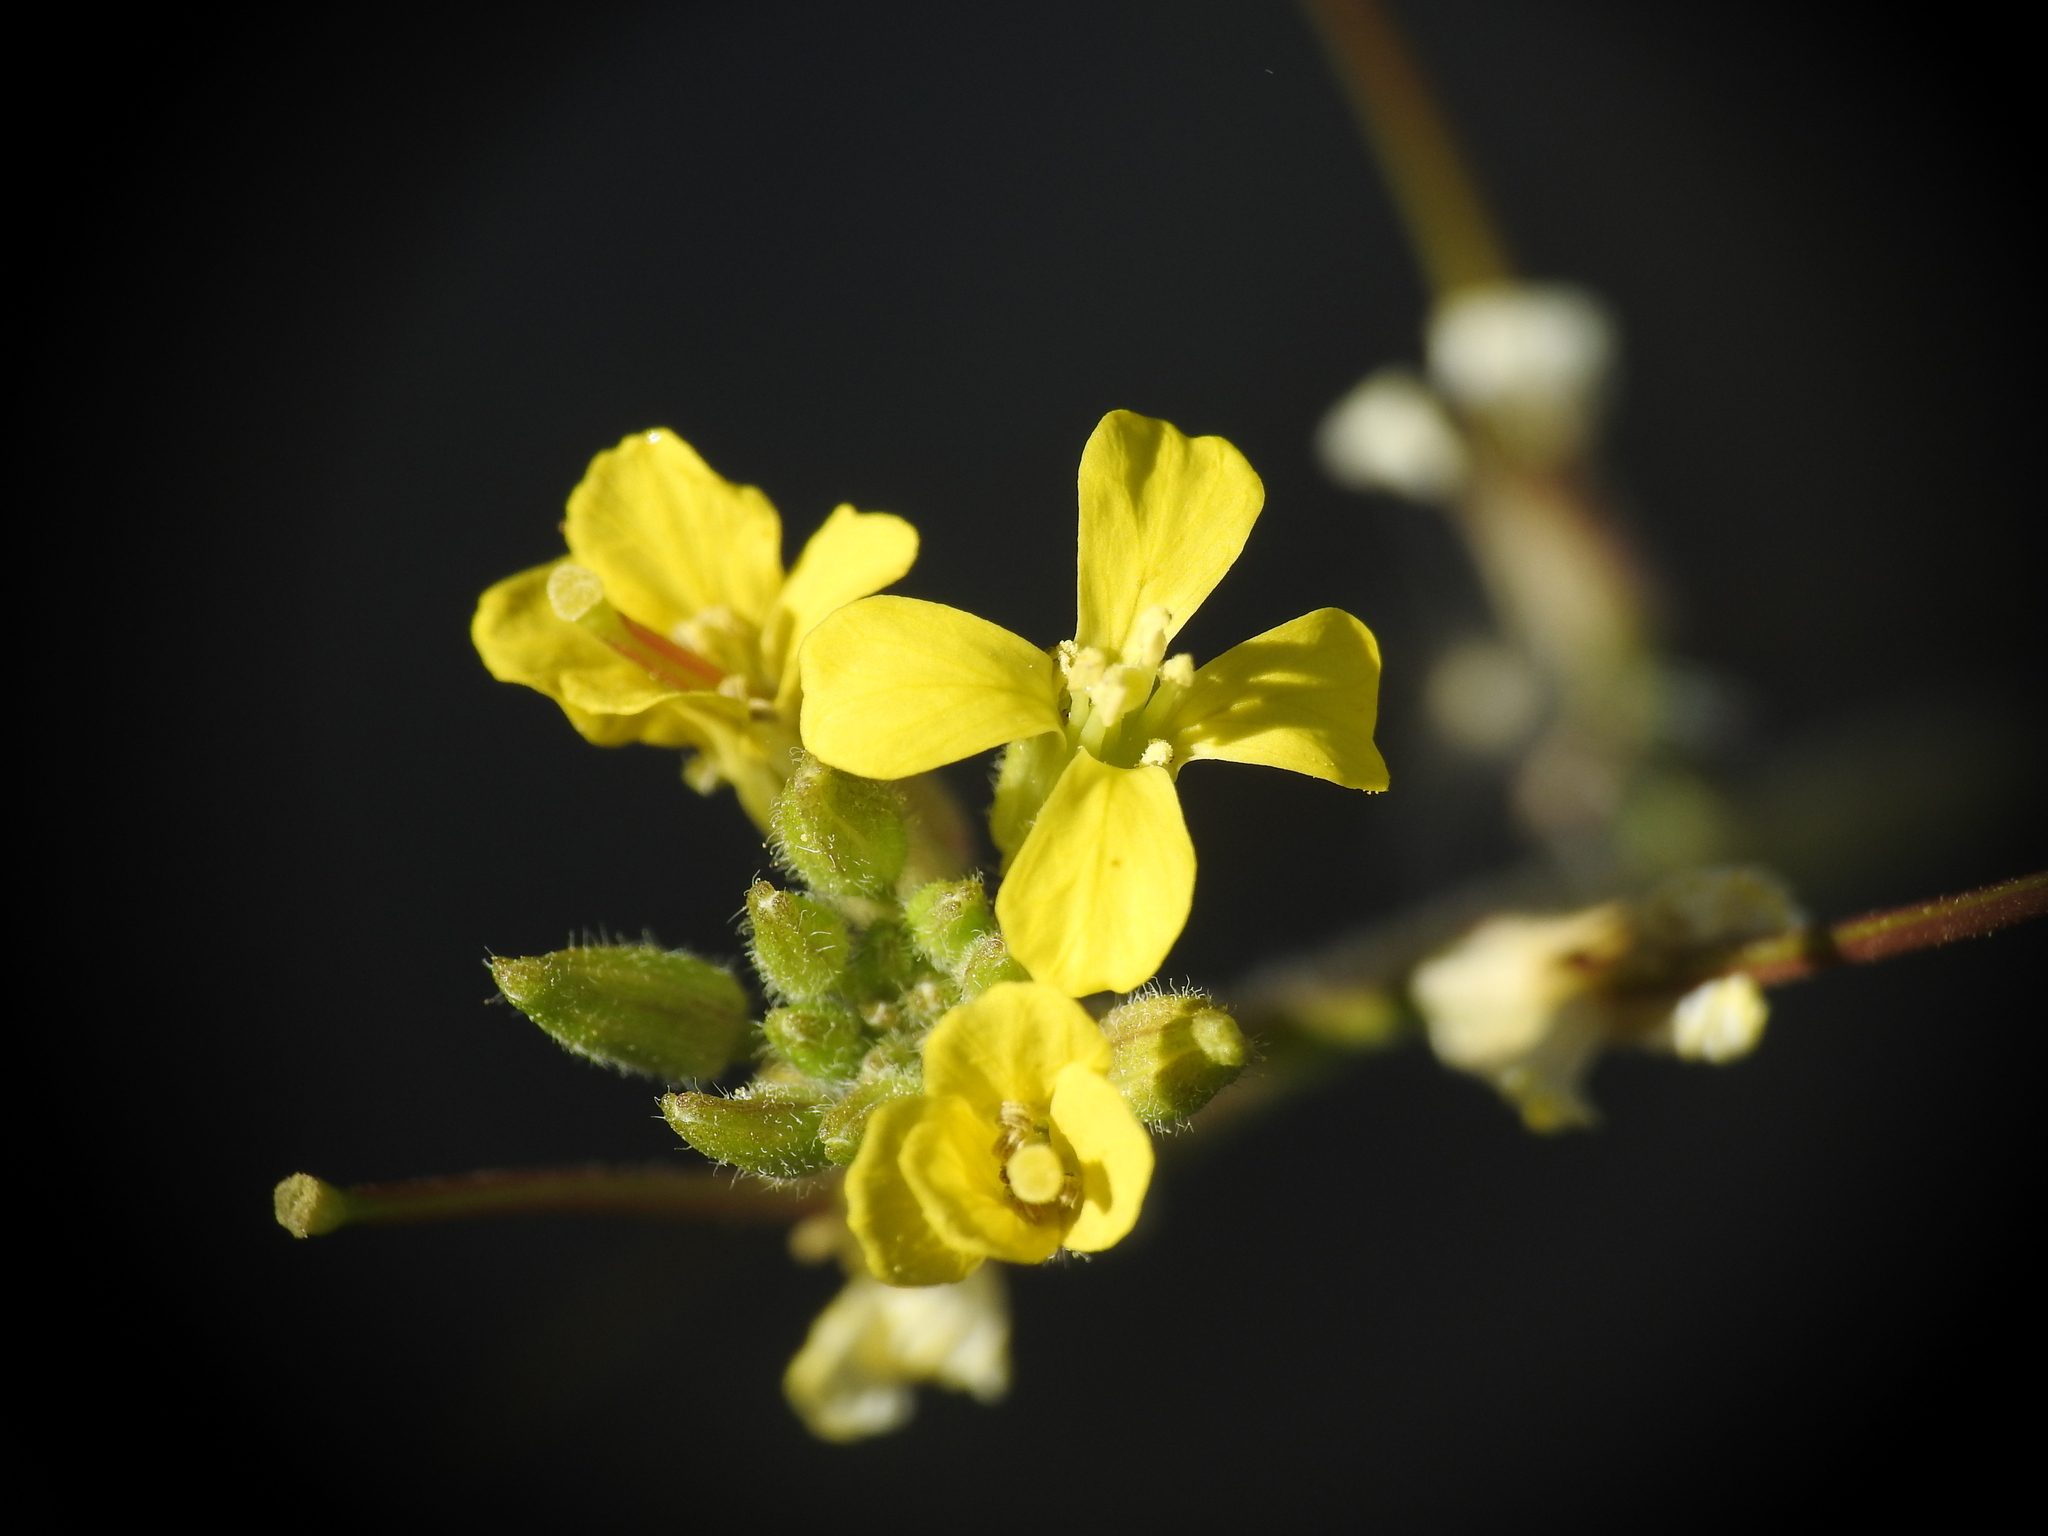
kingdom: Plantae
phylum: Tracheophyta
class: Magnoliopsida
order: Brassicales
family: Brassicaceae
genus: Sisymbrium
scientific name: Sisymbrium orientale
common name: Eastern rocket
